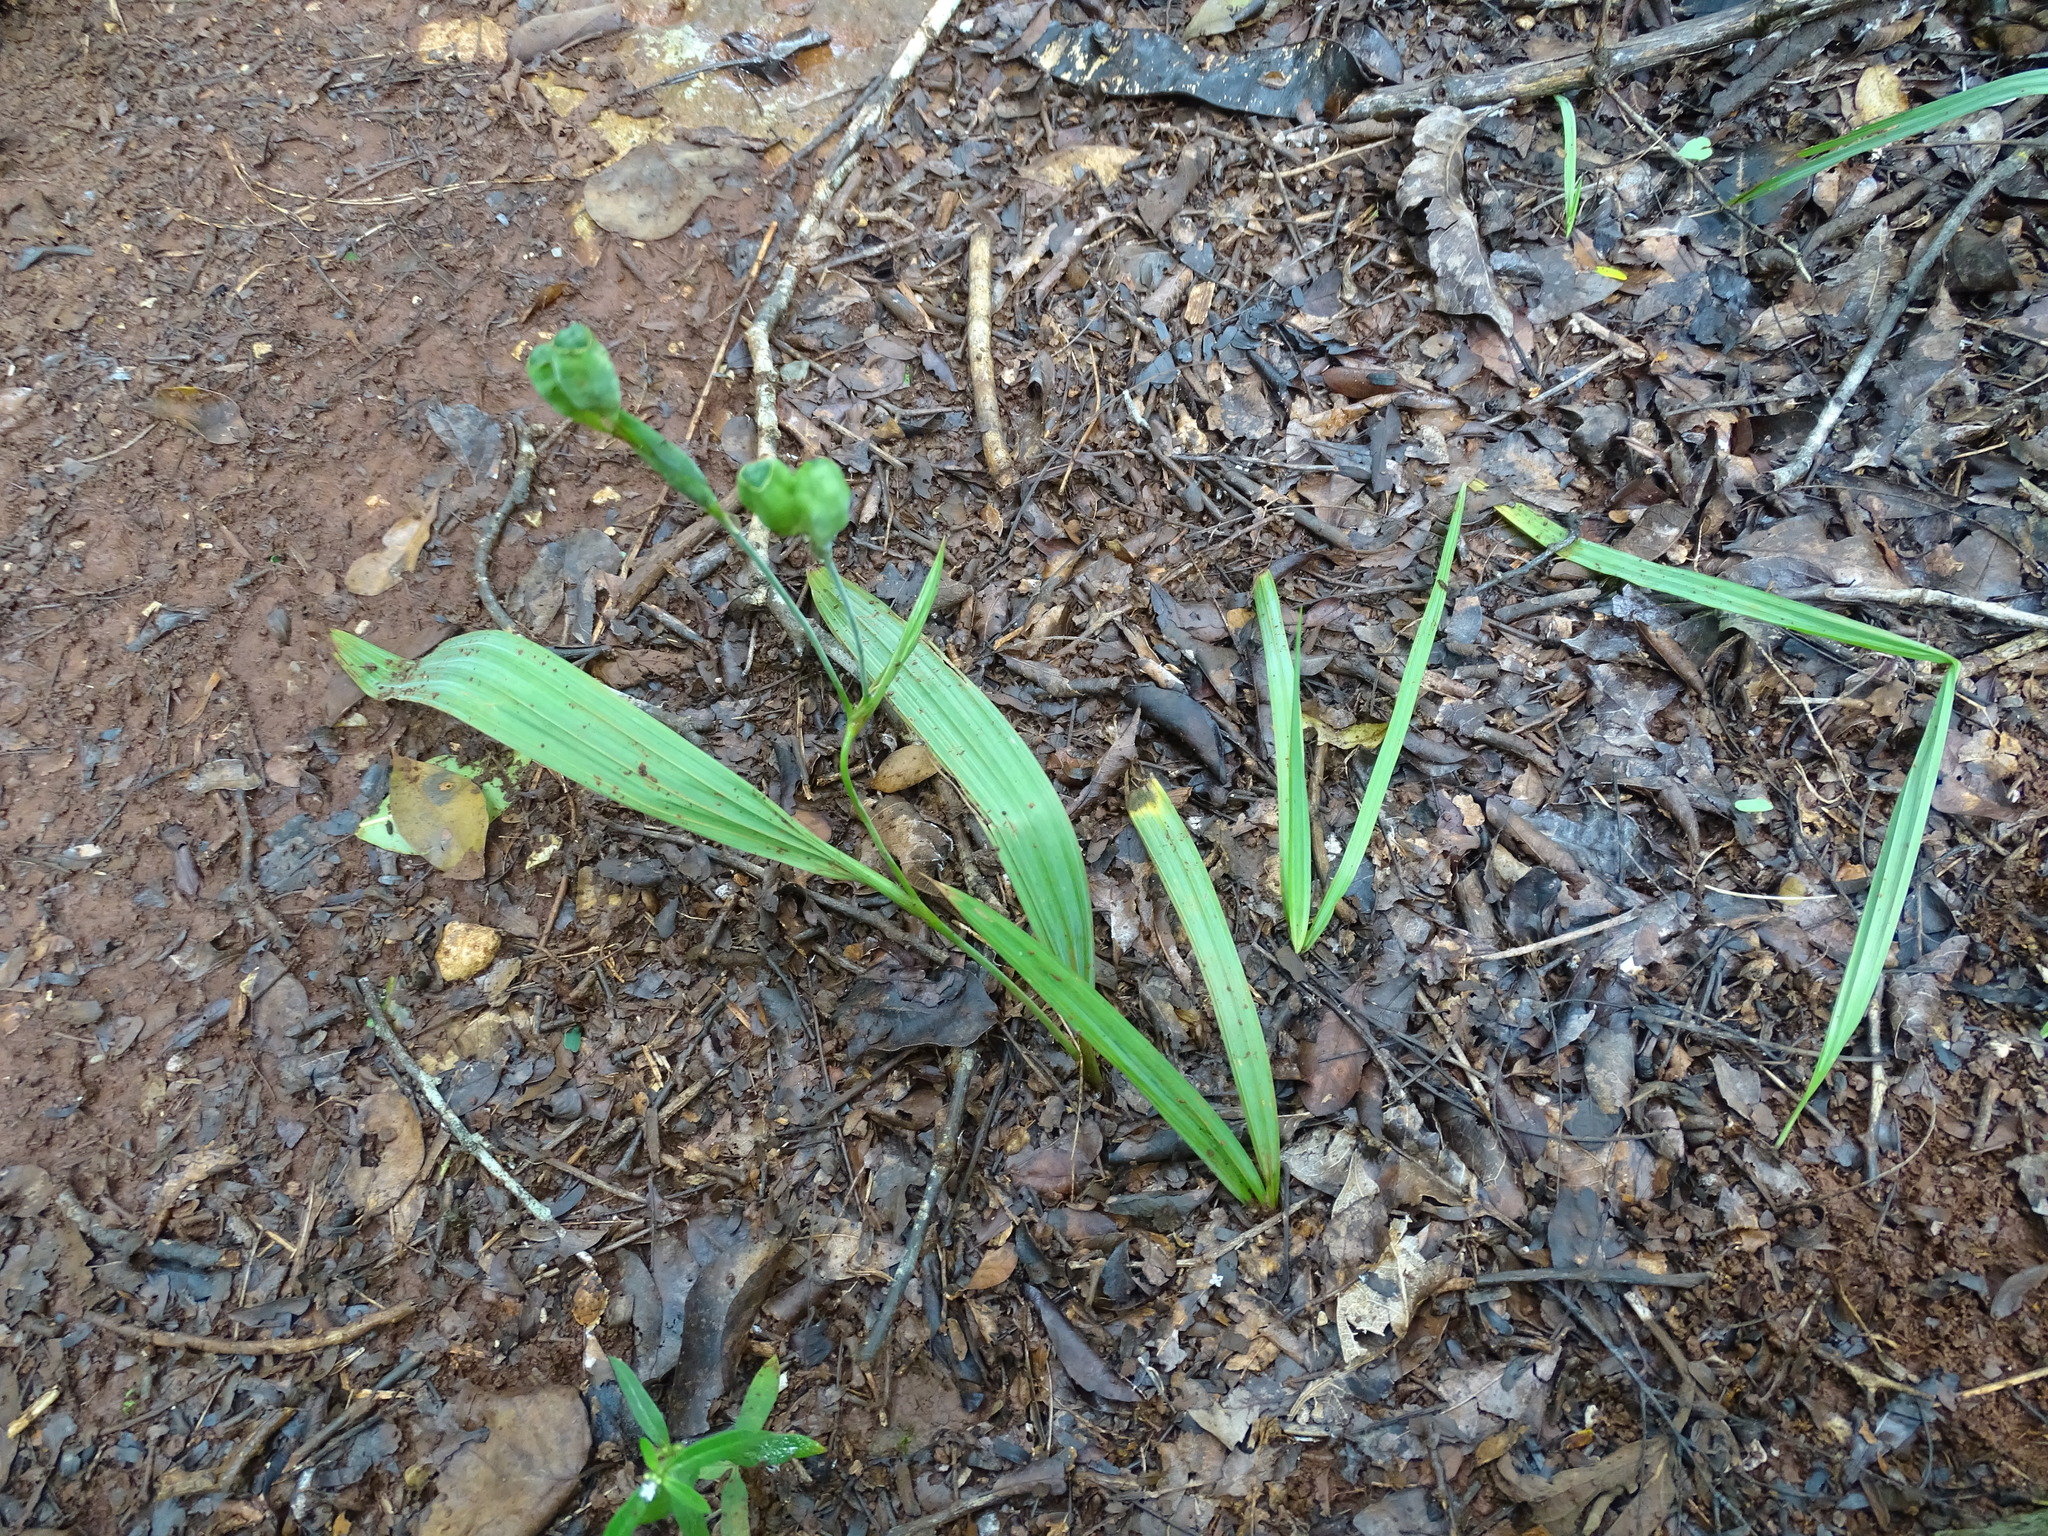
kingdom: Plantae
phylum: Tracheophyta
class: Liliopsida
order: Asparagales
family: Iridaceae
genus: Alophia
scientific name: Alophia silvestris
